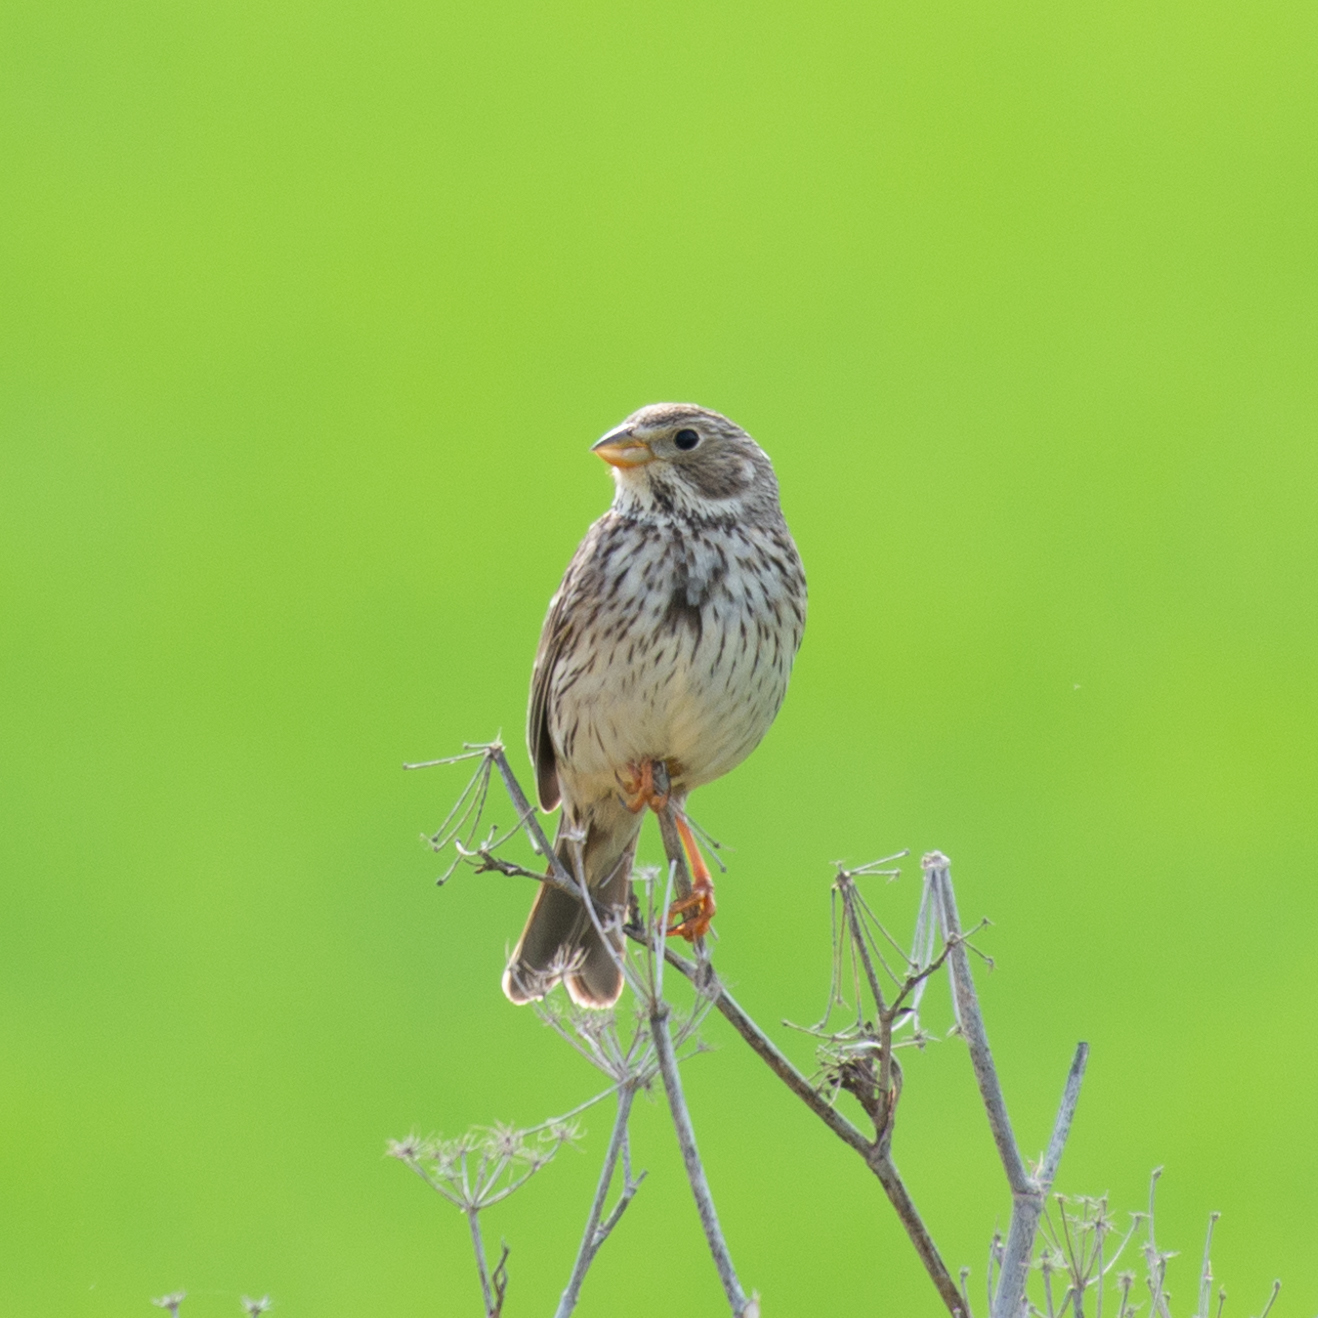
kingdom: Animalia
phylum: Chordata
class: Aves
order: Passeriformes
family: Emberizidae
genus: Emberiza
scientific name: Emberiza calandra
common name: Corn bunting
